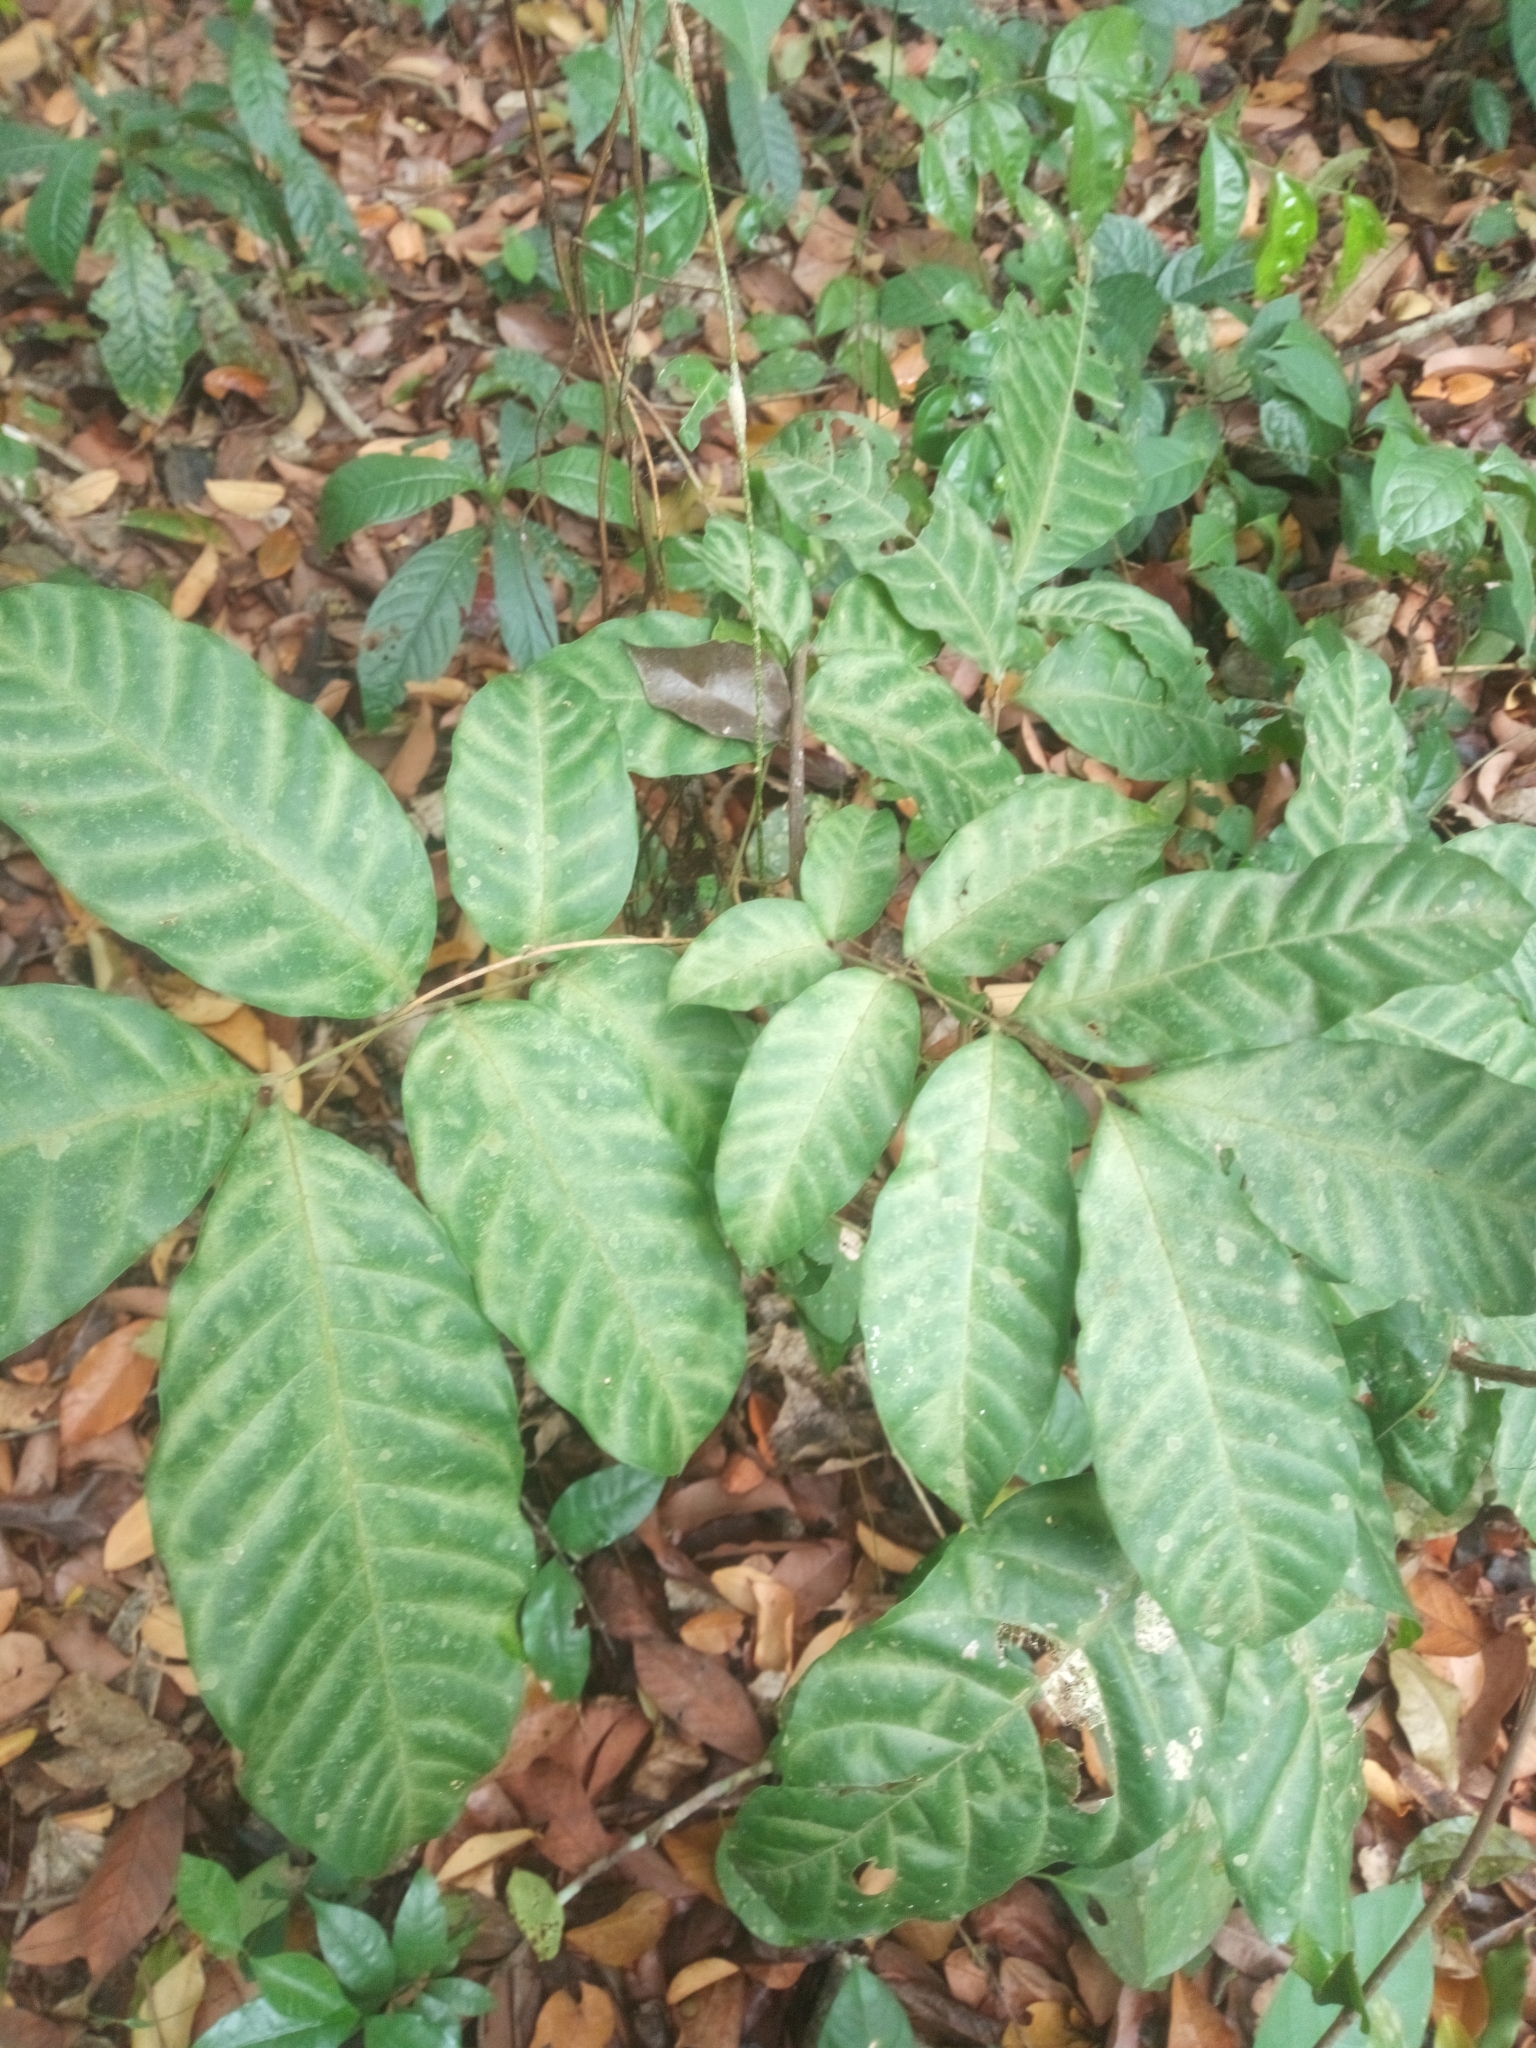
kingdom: Plantae
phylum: Tracheophyta
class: Magnoliopsida
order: Sapindales
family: Sapindaceae
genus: Lecaniodiscus
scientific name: Lecaniodiscus cupanioides
